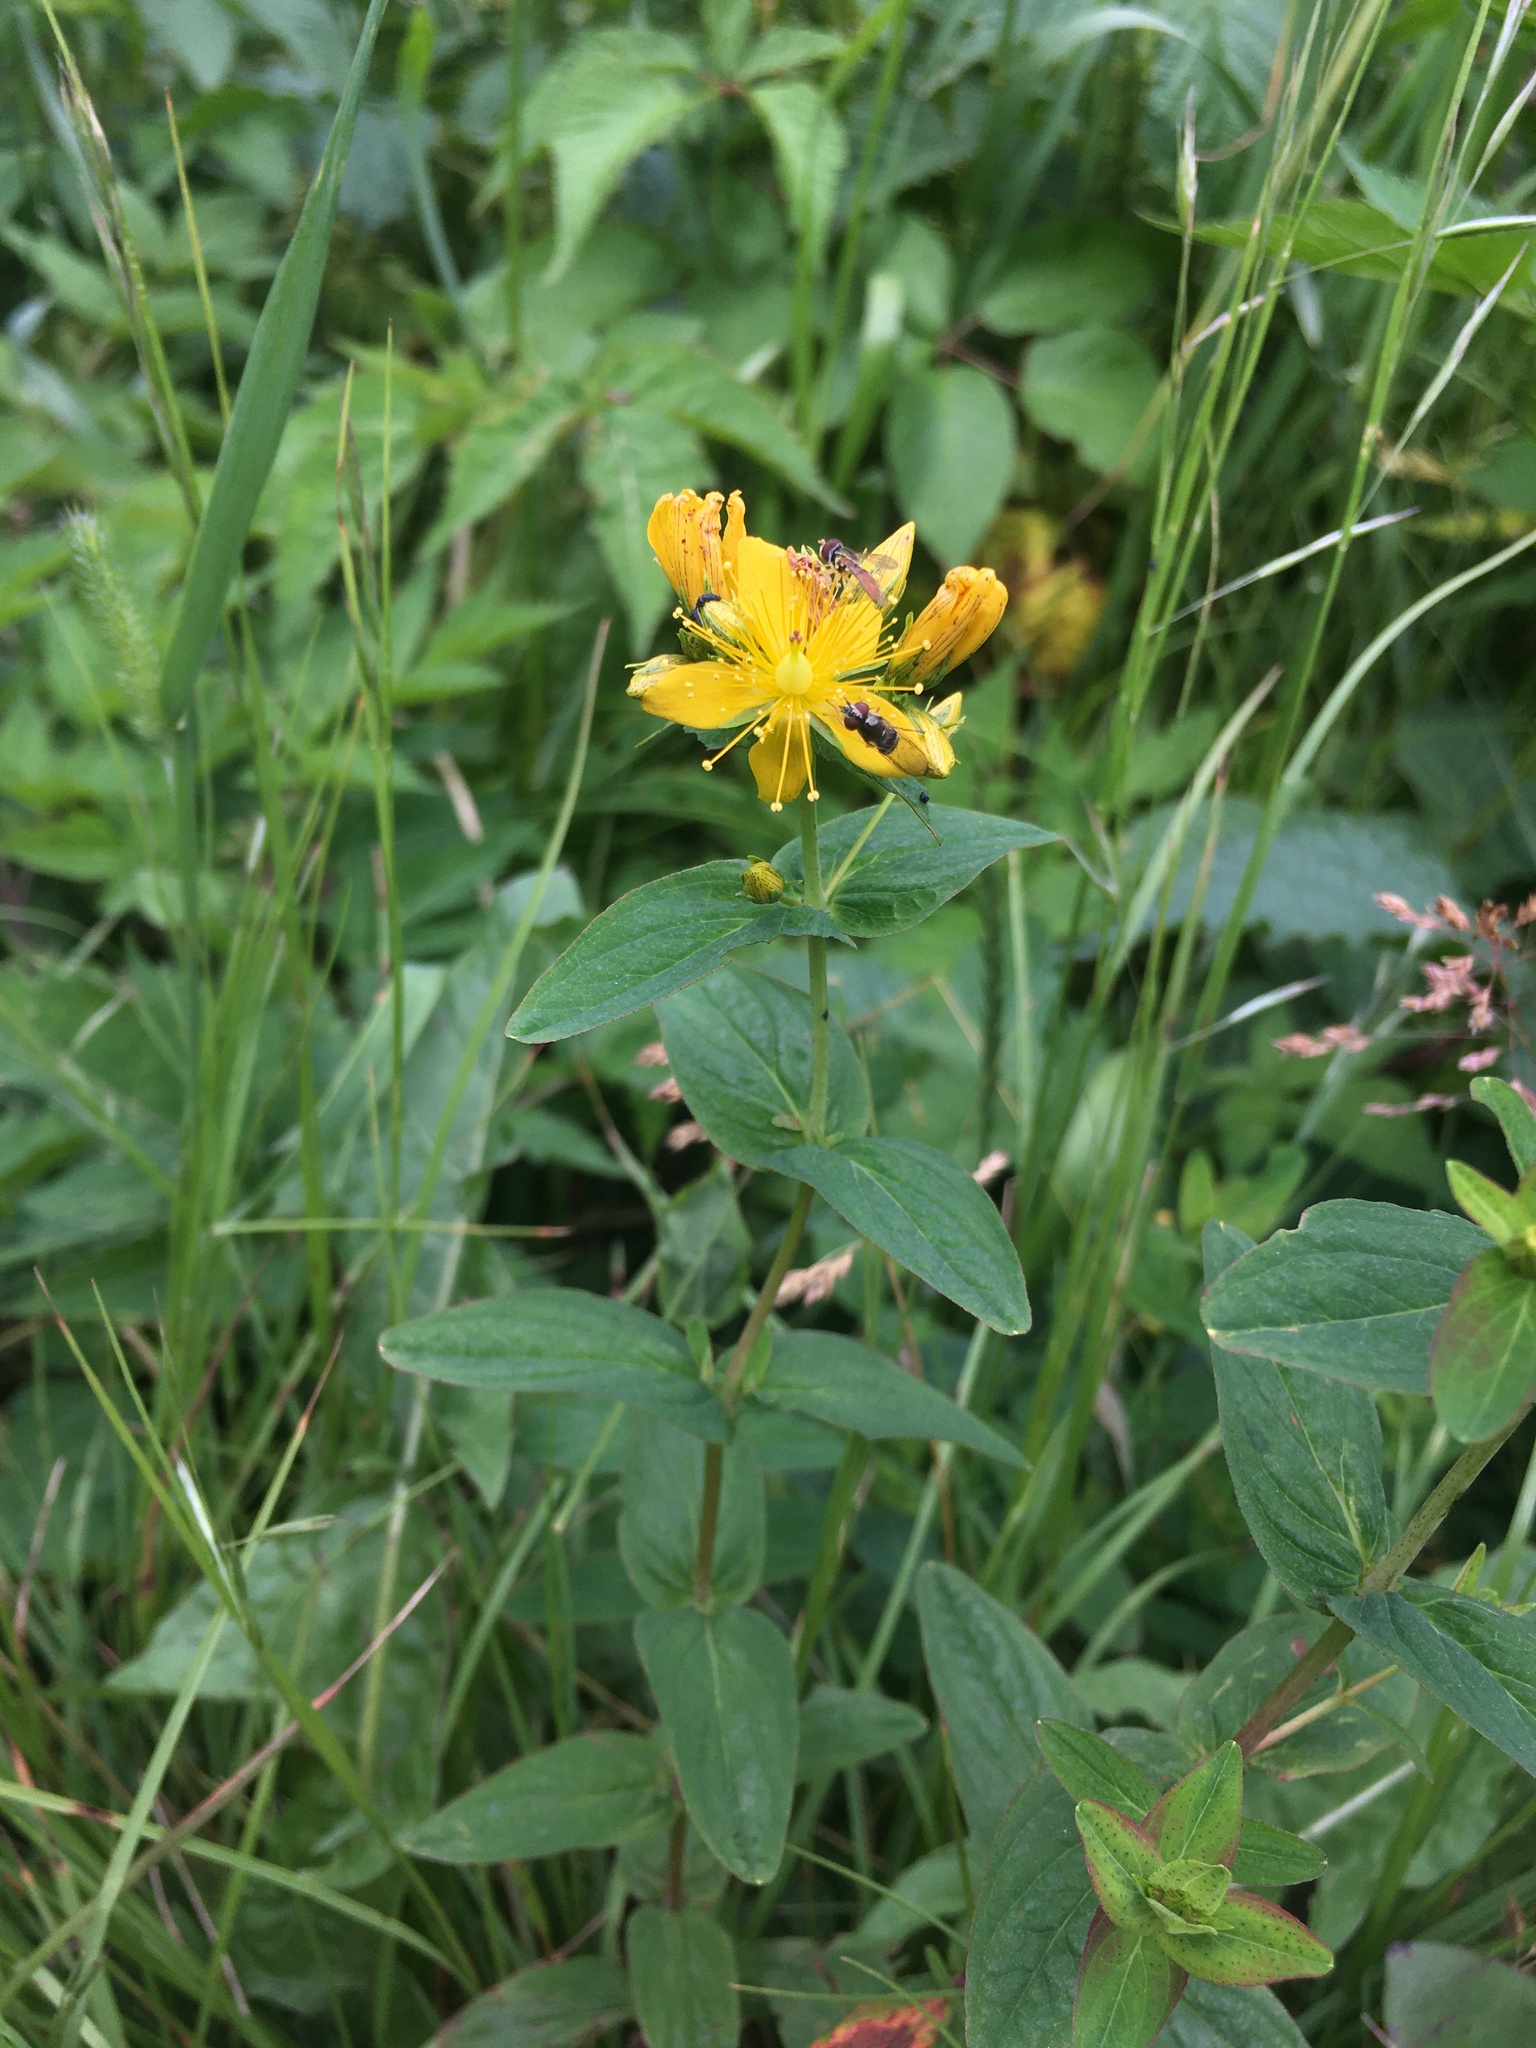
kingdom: Plantae
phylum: Tracheophyta
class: Magnoliopsida
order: Malpighiales
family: Hypericaceae
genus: Hypericum
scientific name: Hypericum punctatum
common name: Spotted st. john's-wort
